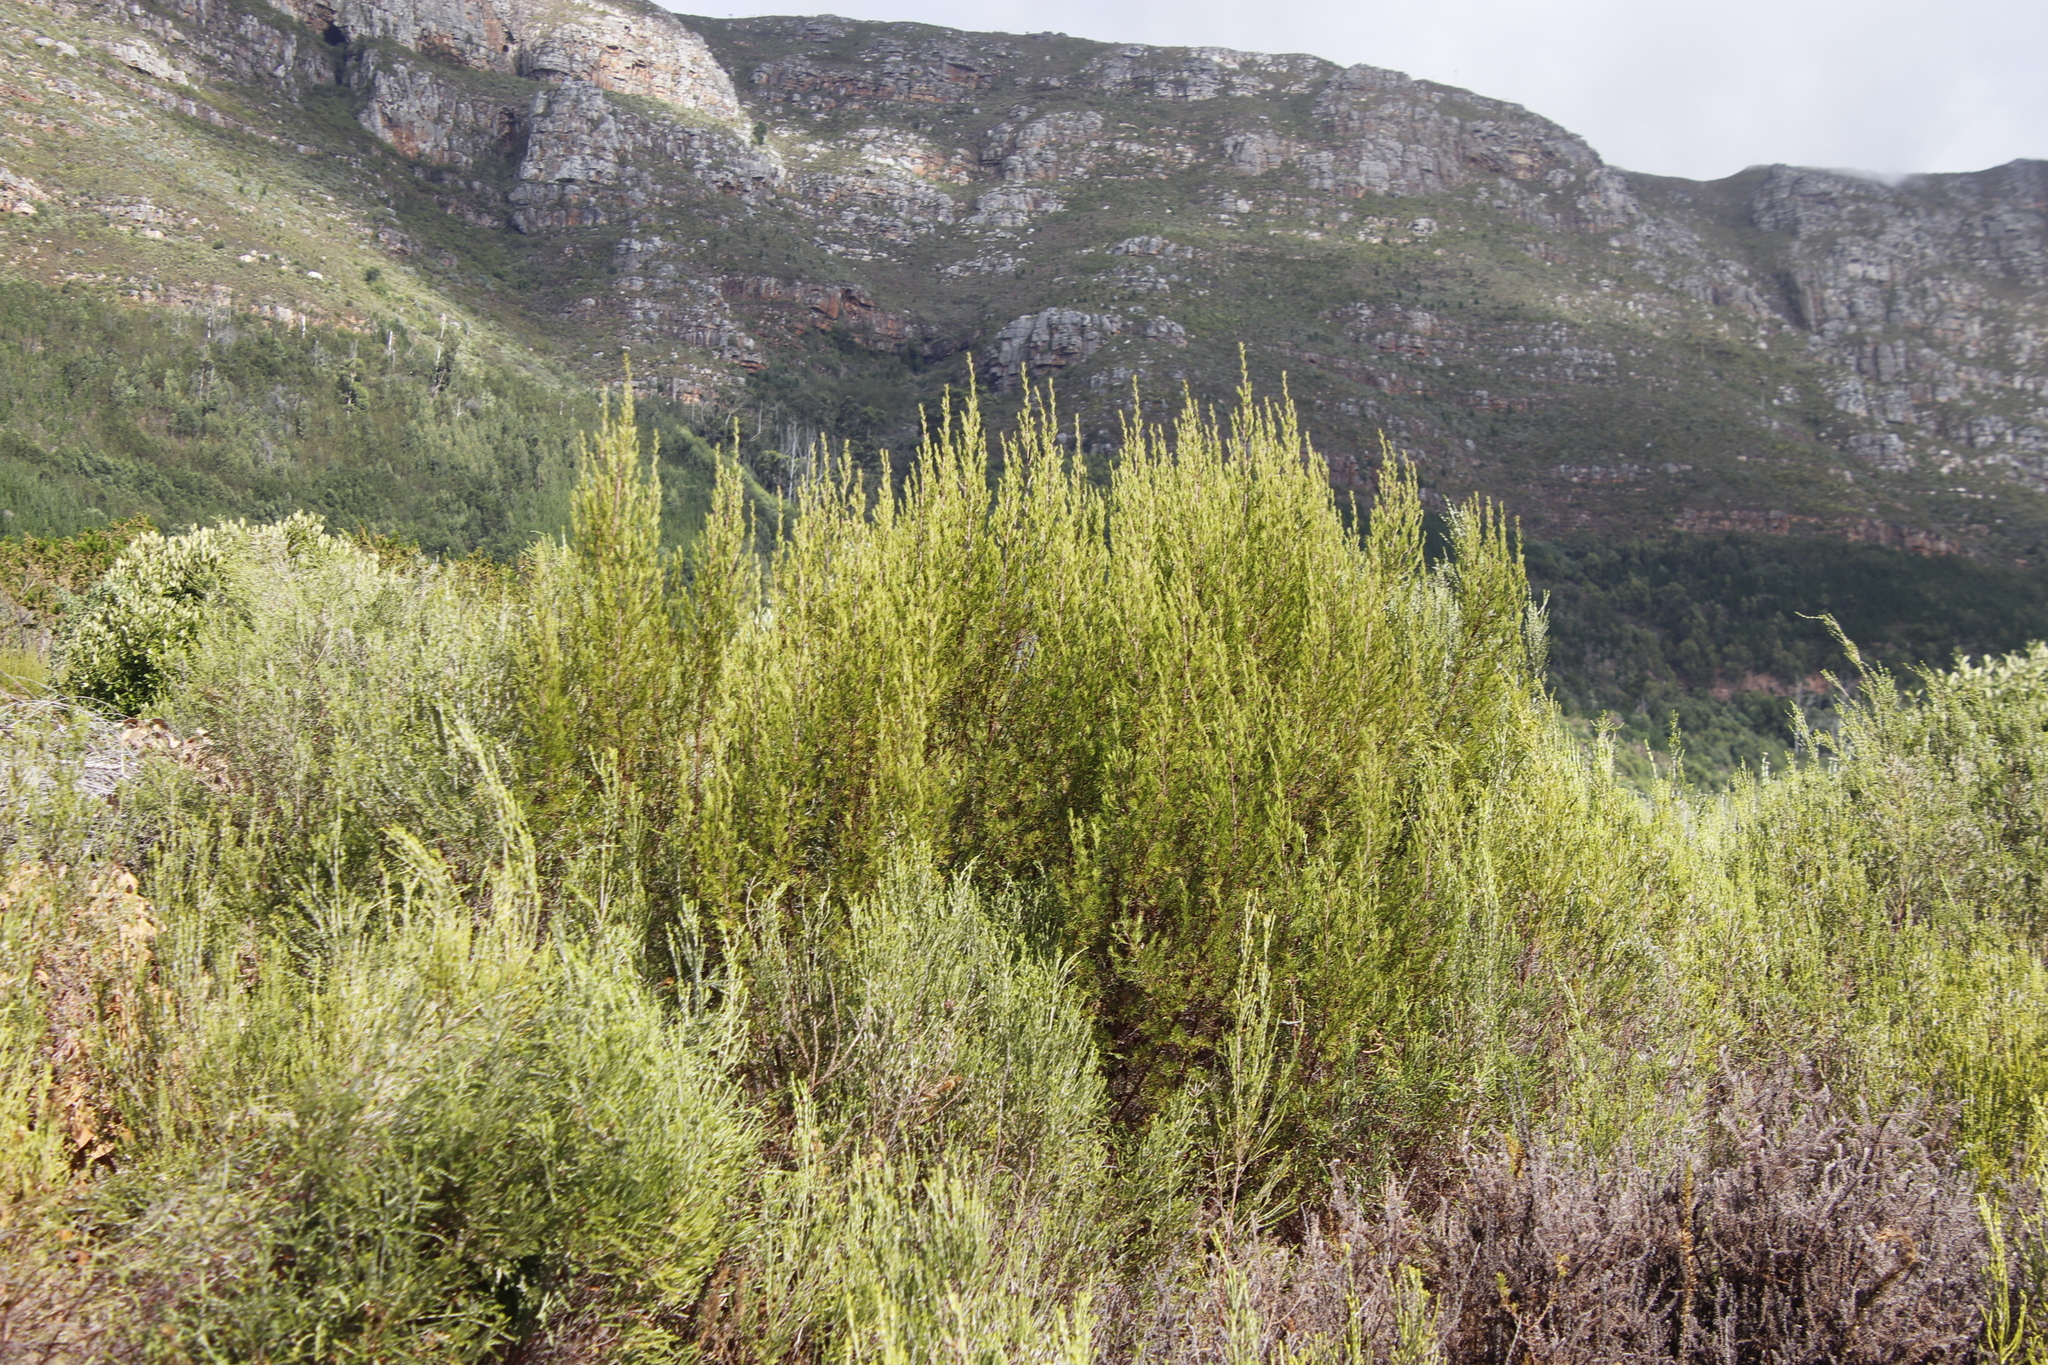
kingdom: Plantae
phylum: Tracheophyta
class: Magnoliopsida
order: Rosales
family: Rosaceae
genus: Cliffortia
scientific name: Cliffortia atrata
